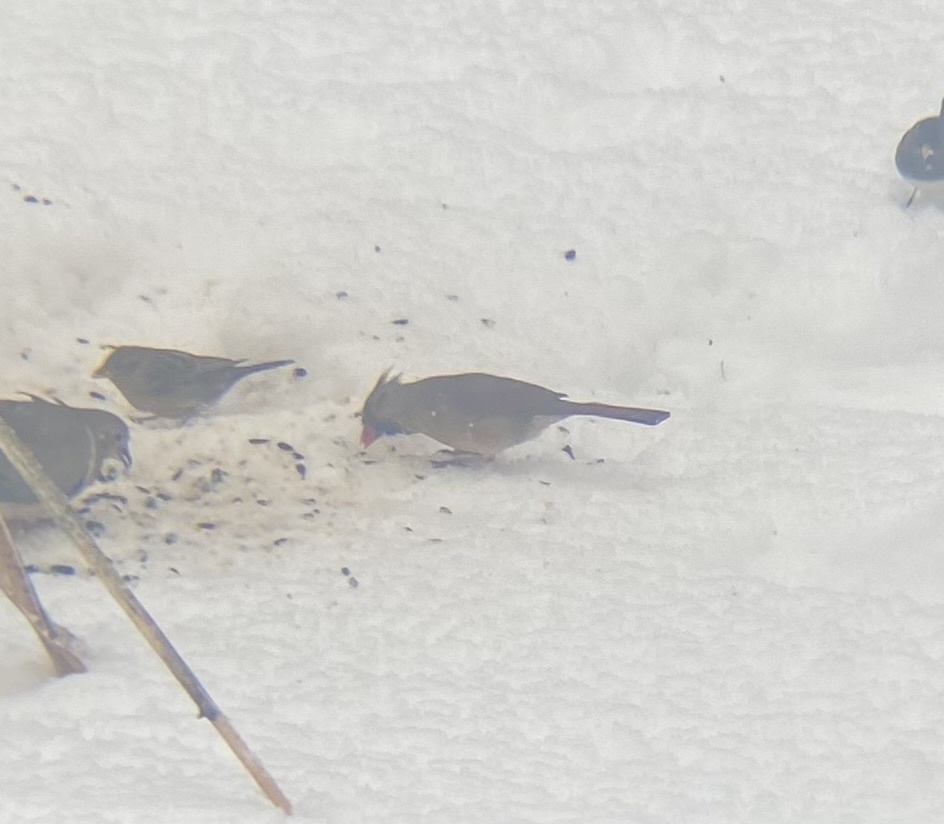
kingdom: Animalia
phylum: Chordata
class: Aves
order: Passeriformes
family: Cardinalidae
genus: Cardinalis
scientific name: Cardinalis cardinalis
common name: Northern cardinal
